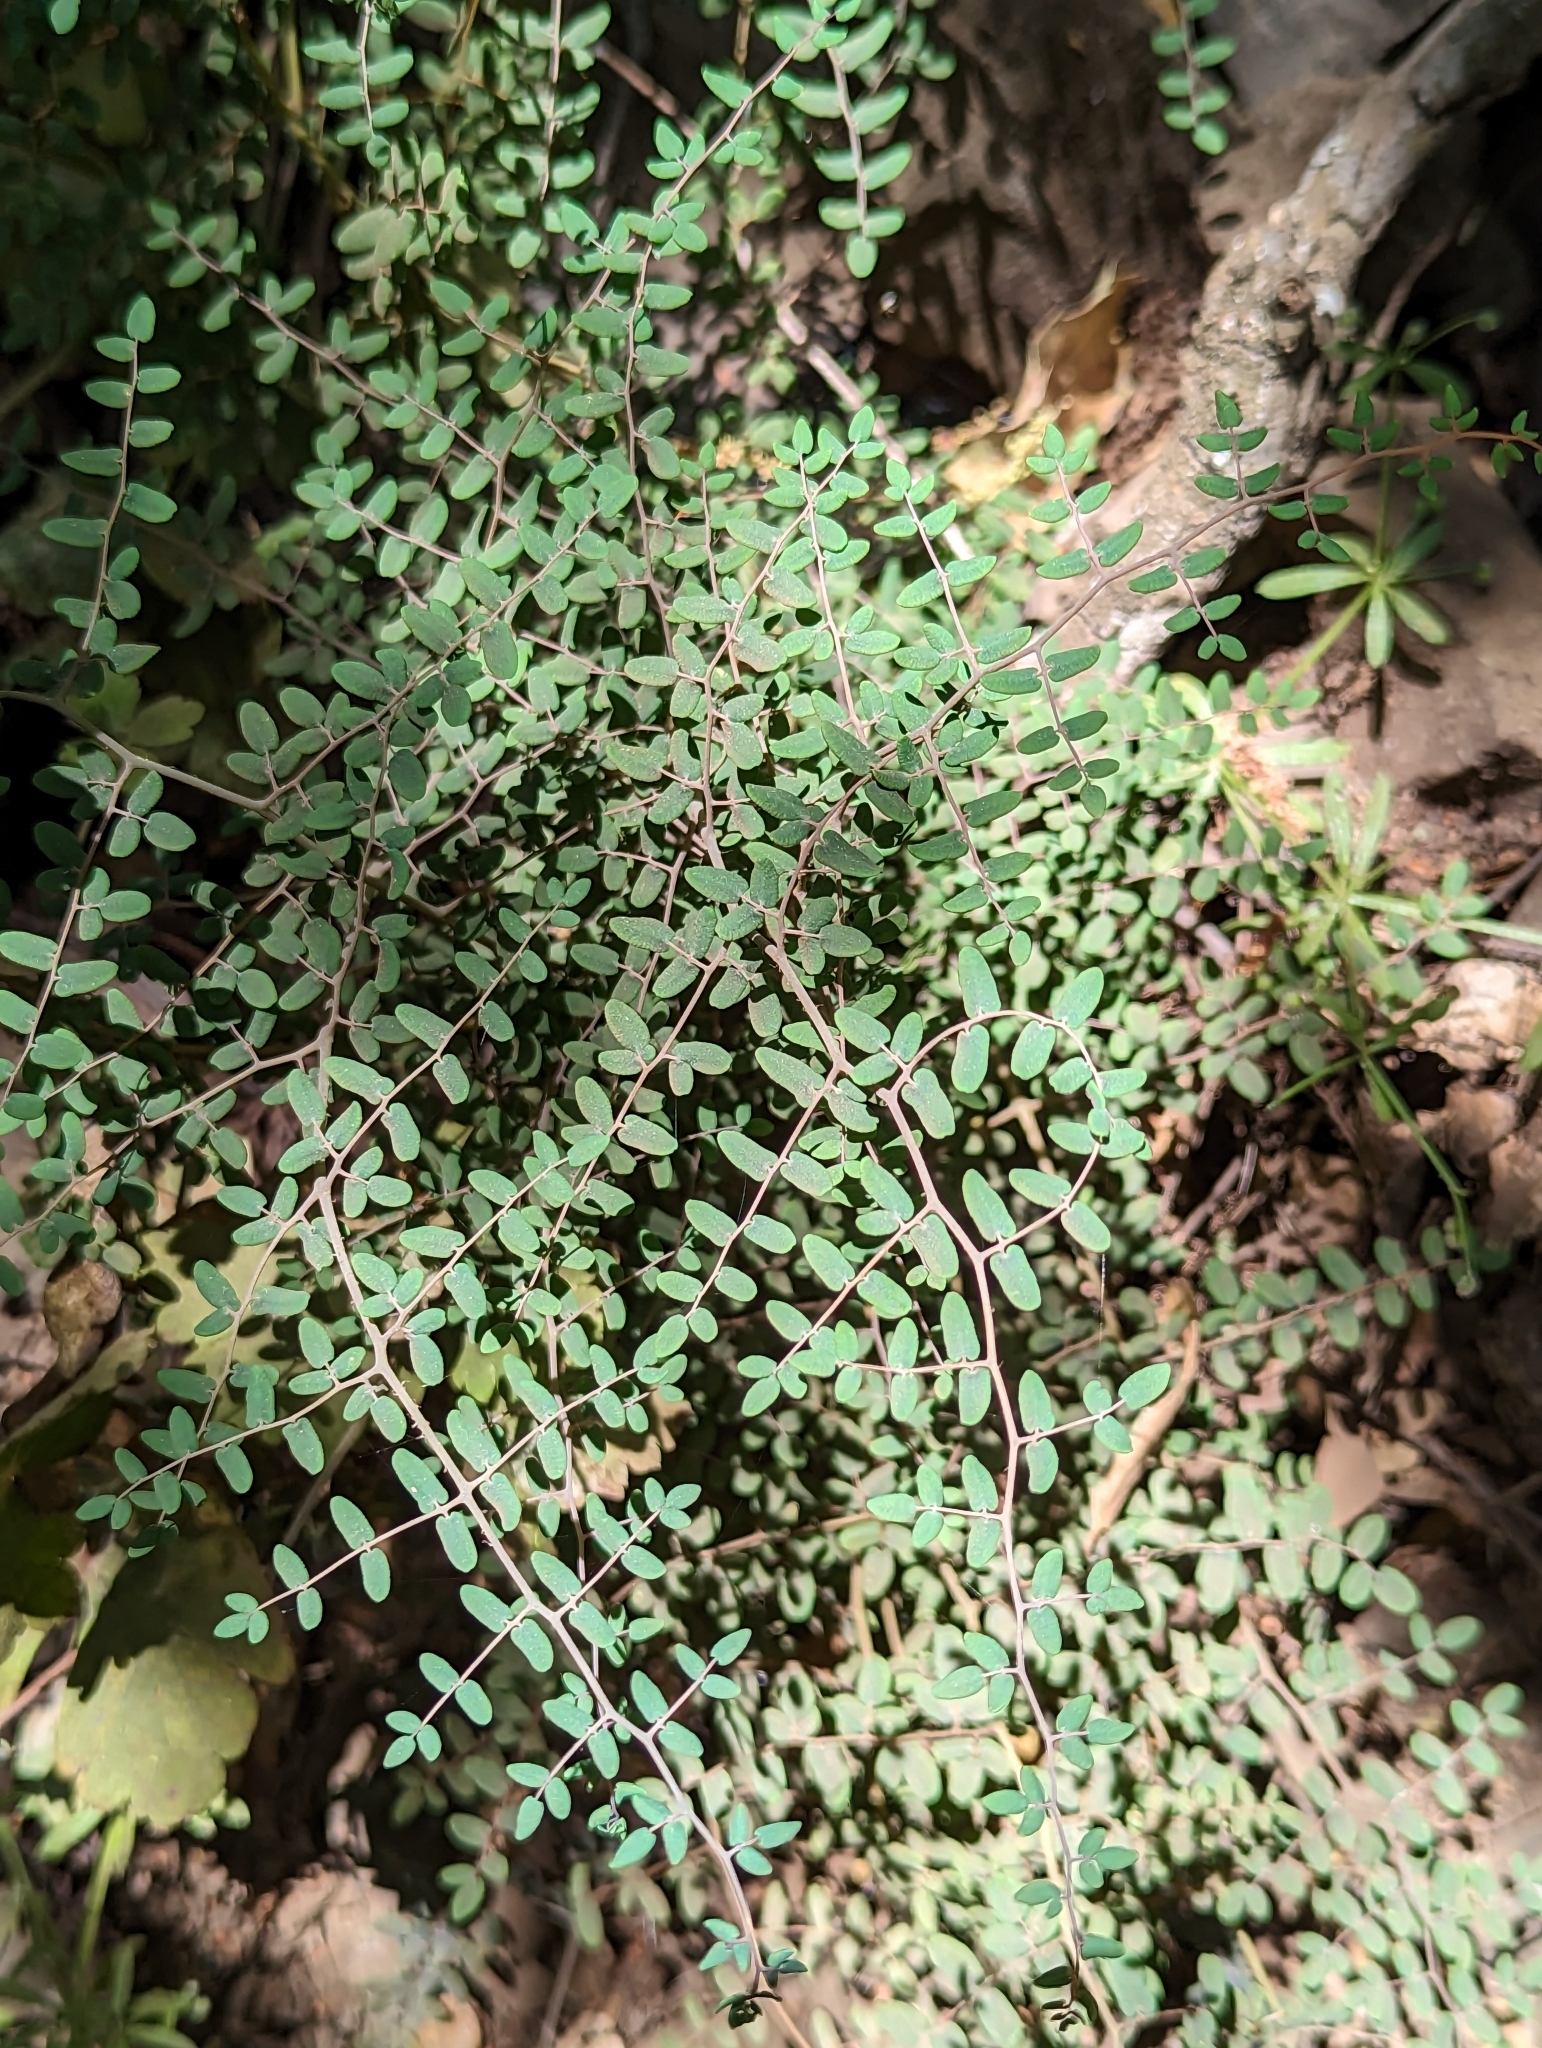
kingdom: Plantae
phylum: Tracheophyta
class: Polypodiopsida
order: Polypodiales
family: Pteridaceae
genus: Pellaea
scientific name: Pellaea andromedifolia
